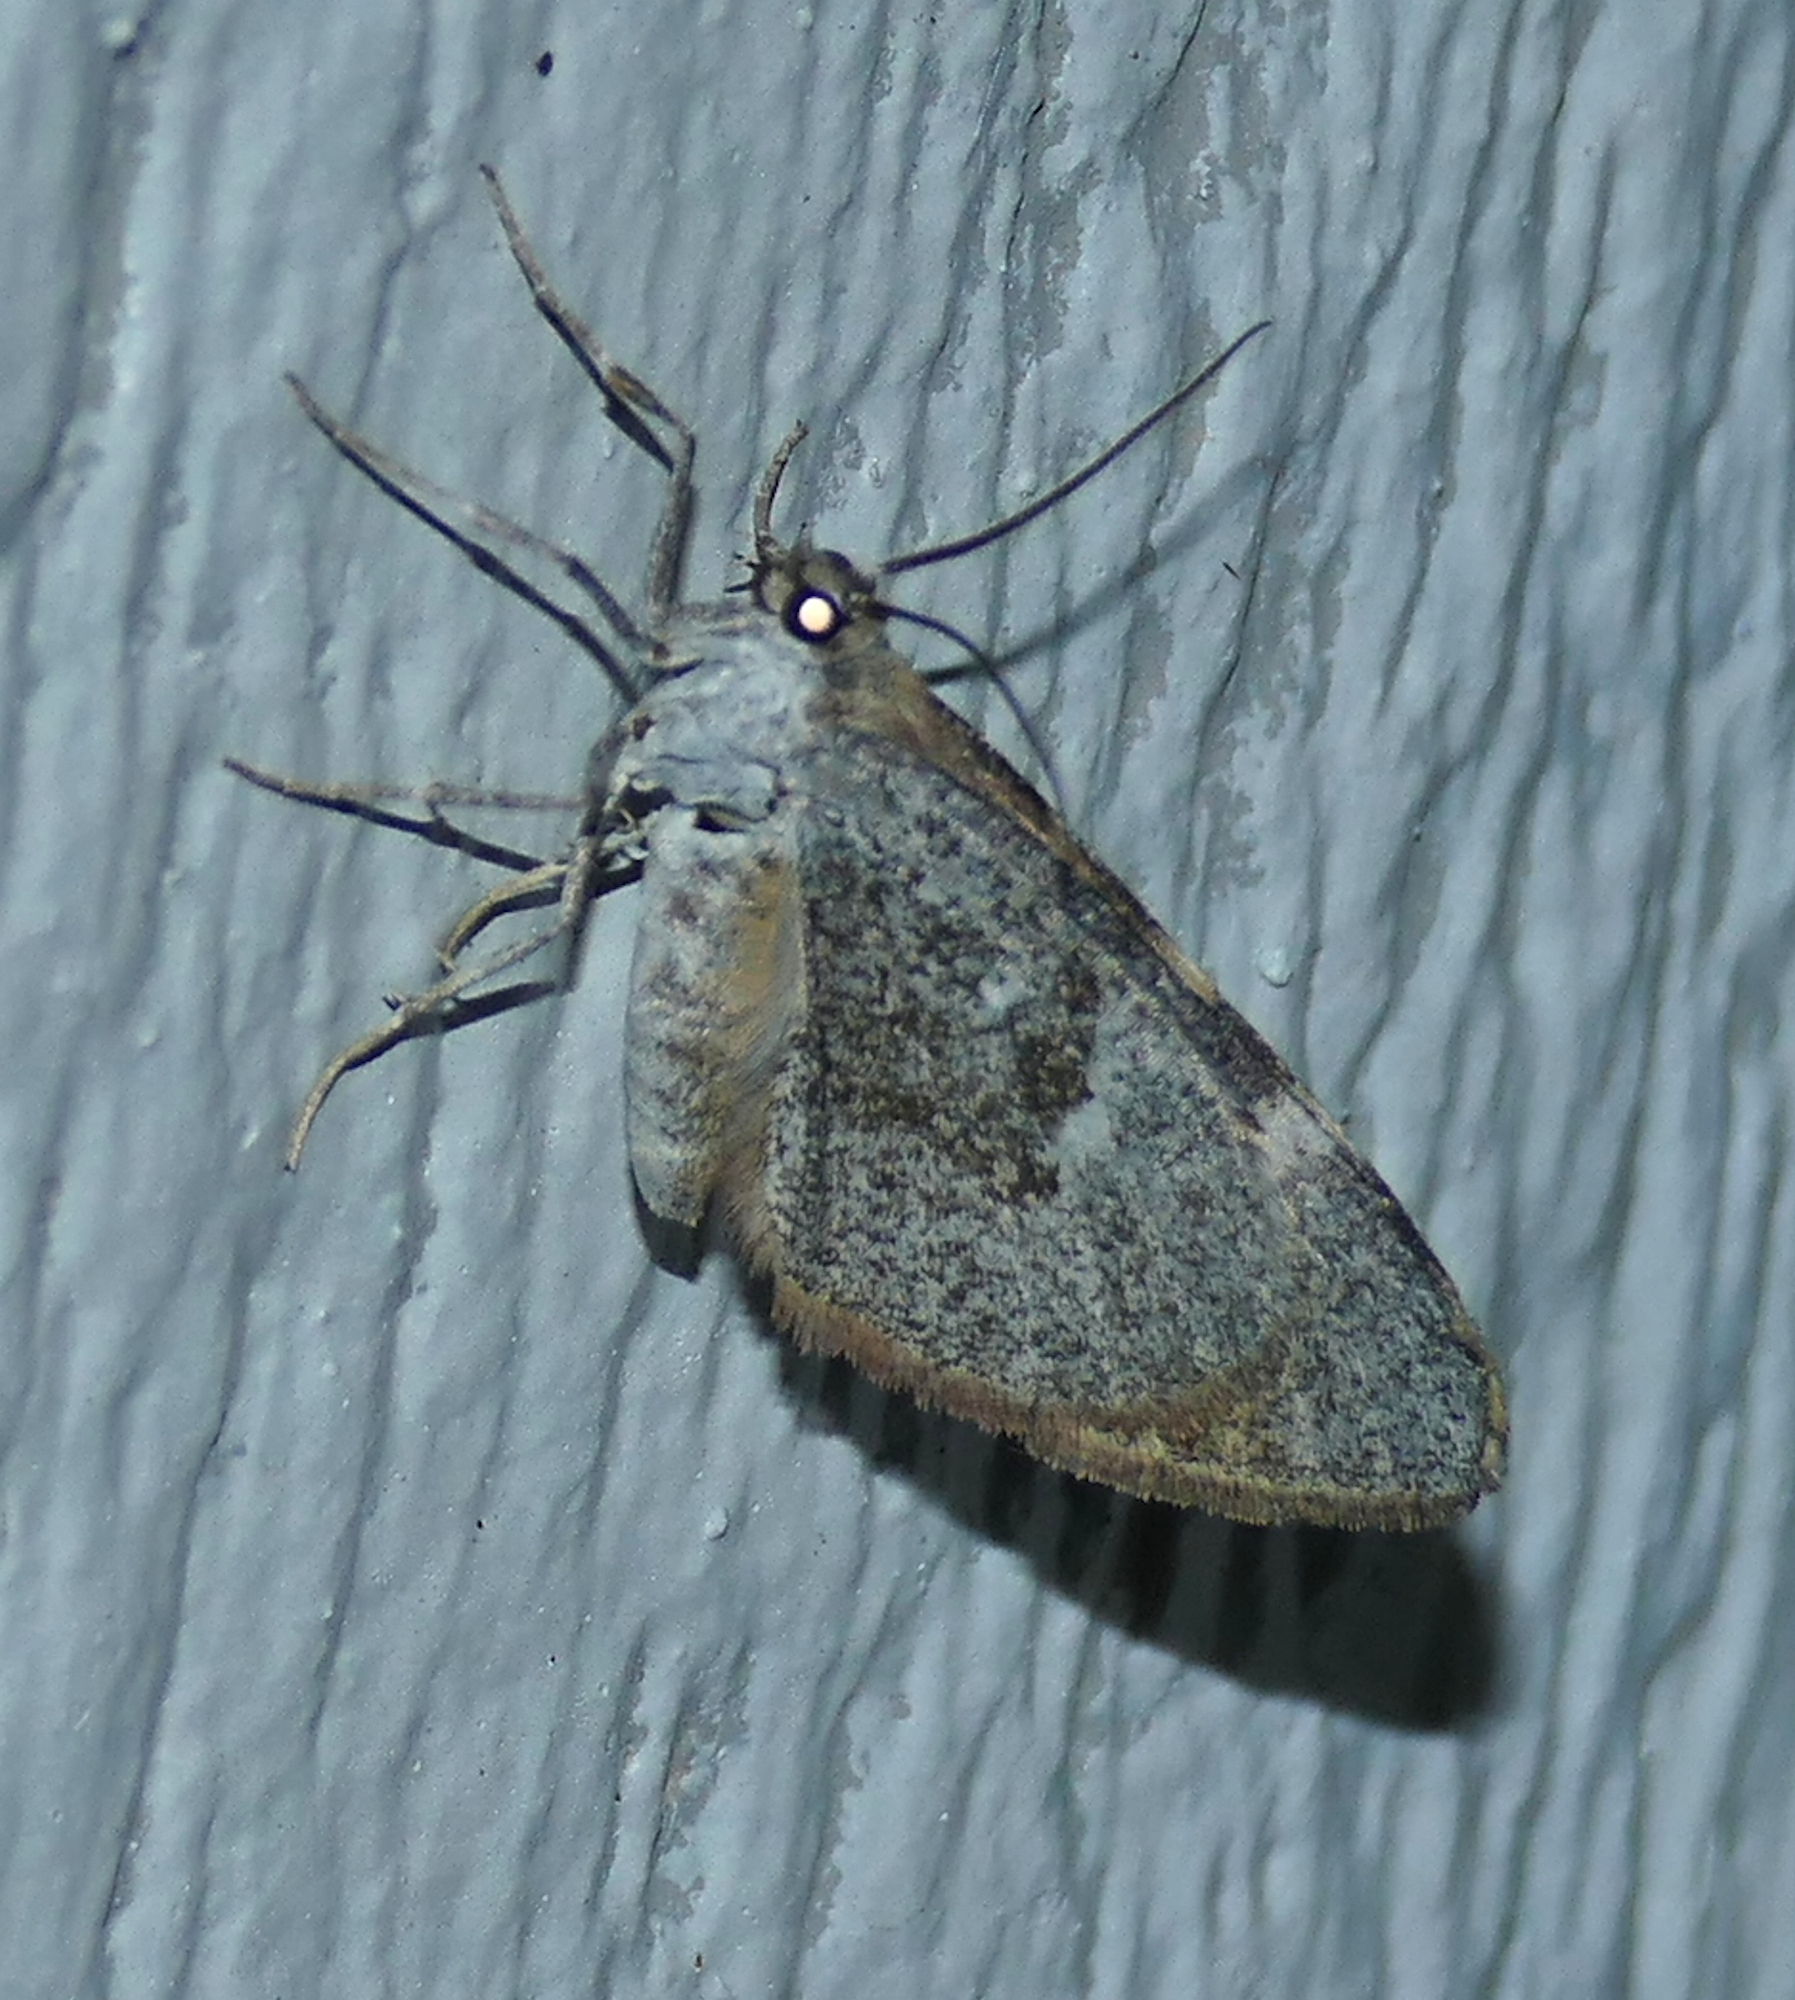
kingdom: Animalia
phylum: Arthropoda
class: Insecta
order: Lepidoptera
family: Geometridae
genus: Stamnodes
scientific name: Stamnodes seiferti
